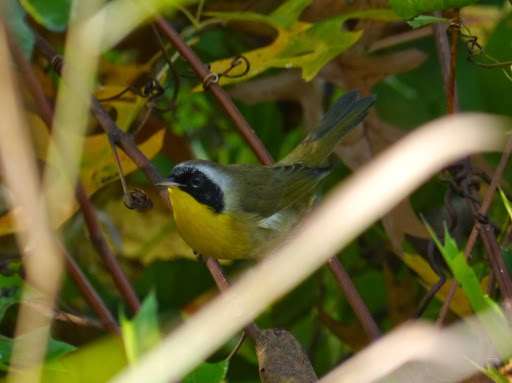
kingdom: Animalia
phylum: Chordata
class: Aves
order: Passeriformes
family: Parulidae
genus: Geothlypis
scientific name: Geothlypis trichas
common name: Common yellowthroat
